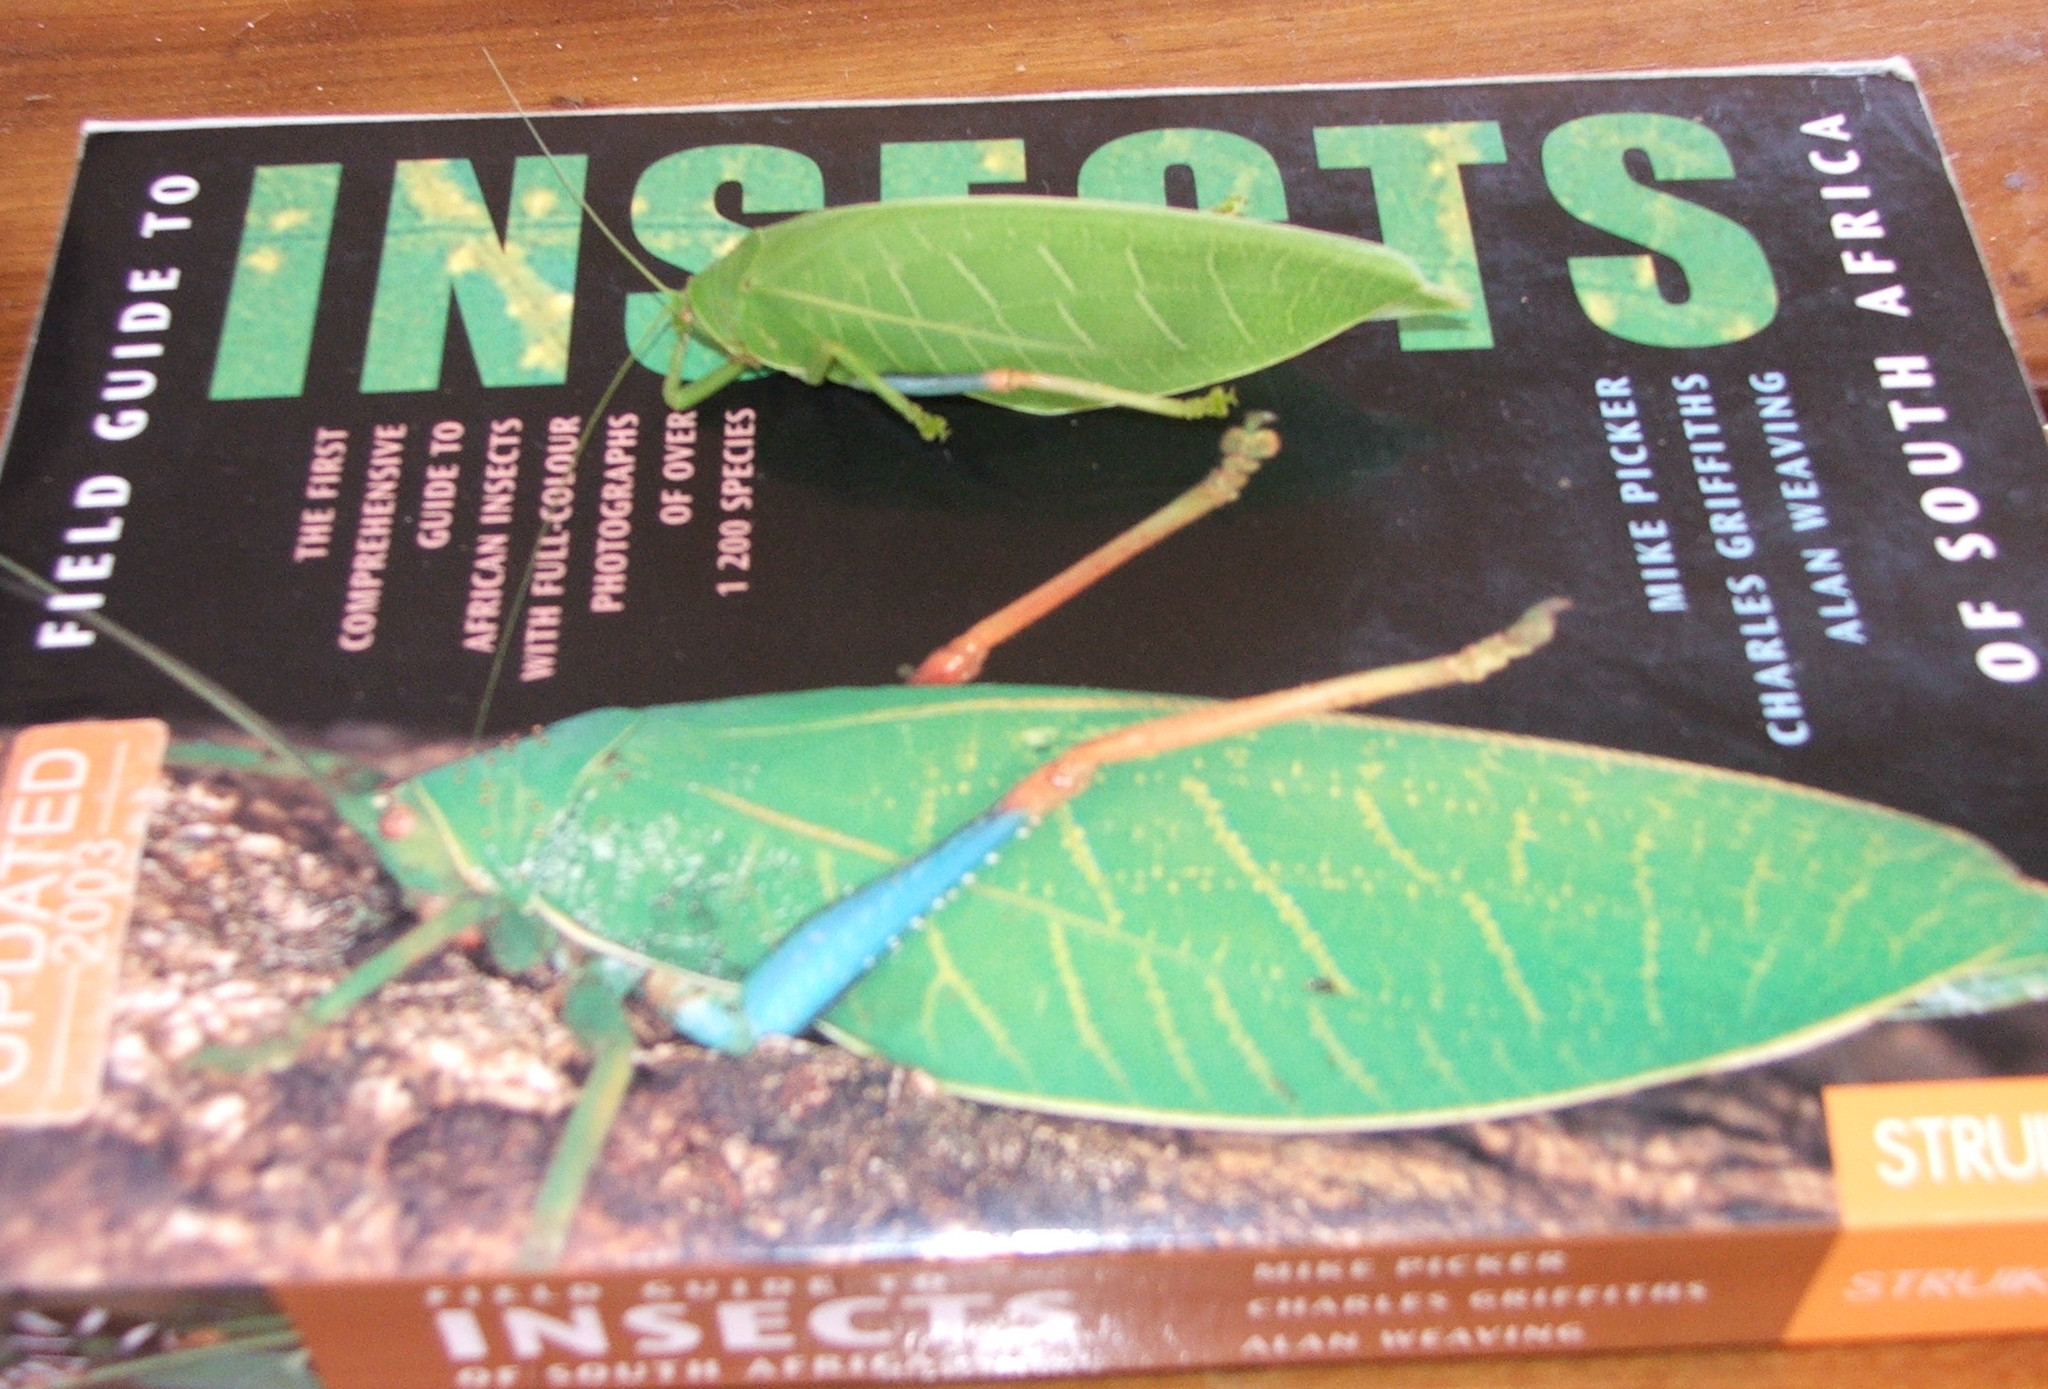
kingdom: Animalia
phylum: Arthropoda
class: Insecta
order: Orthoptera
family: Tettigoniidae
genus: Zabalius
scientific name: Zabalius ophthalmicus
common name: Blue-legged sylvan katydid
